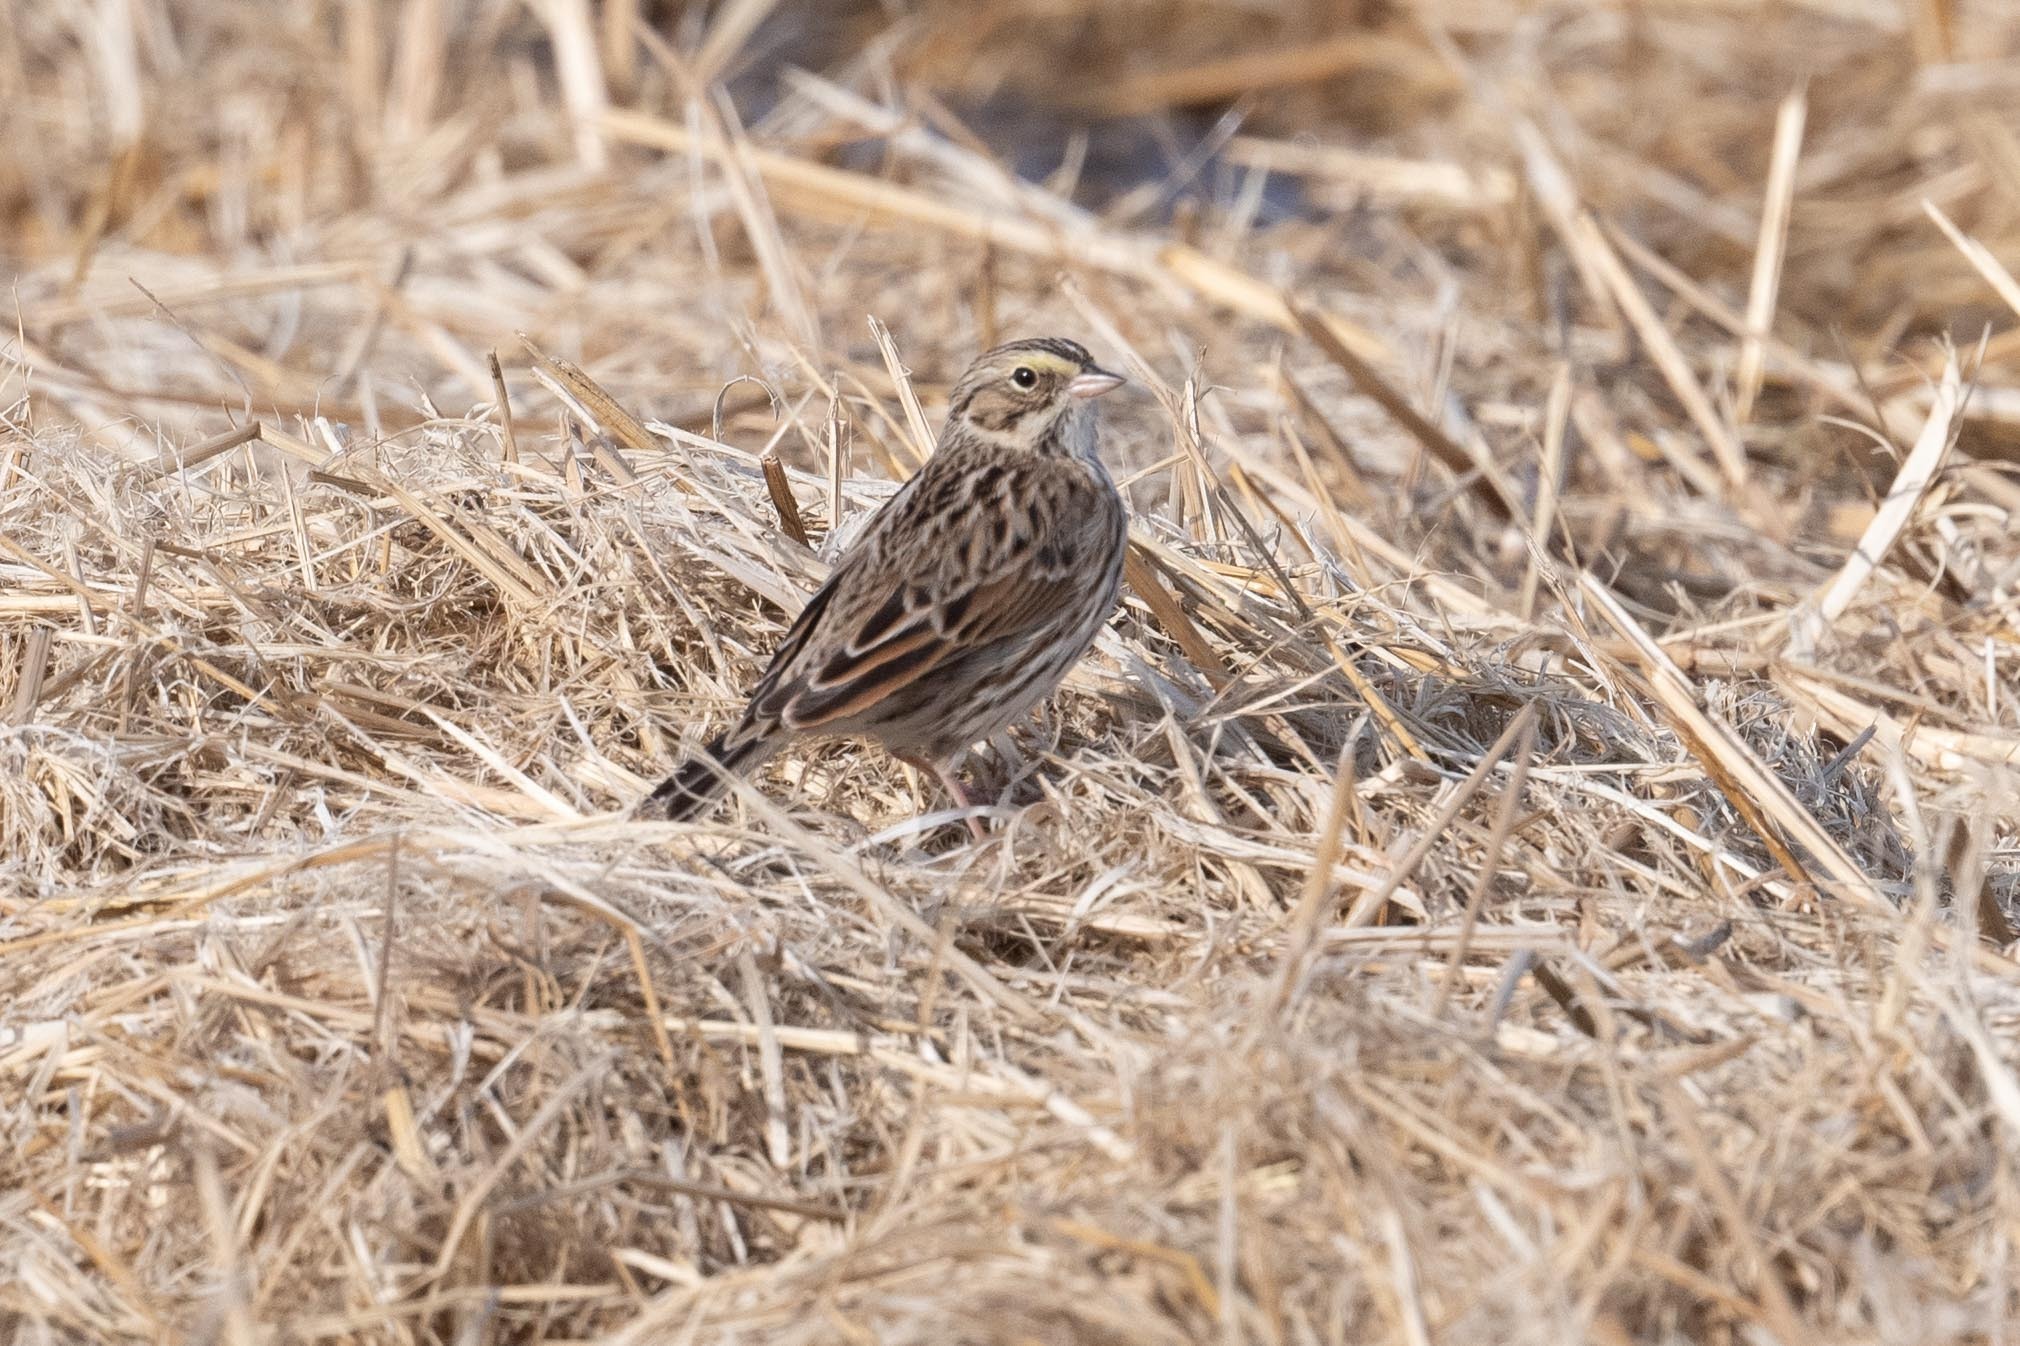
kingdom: Animalia
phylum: Chordata
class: Aves
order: Passeriformes
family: Passerellidae
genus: Passerculus
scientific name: Passerculus sandwichensis
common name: Savannah sparrow
